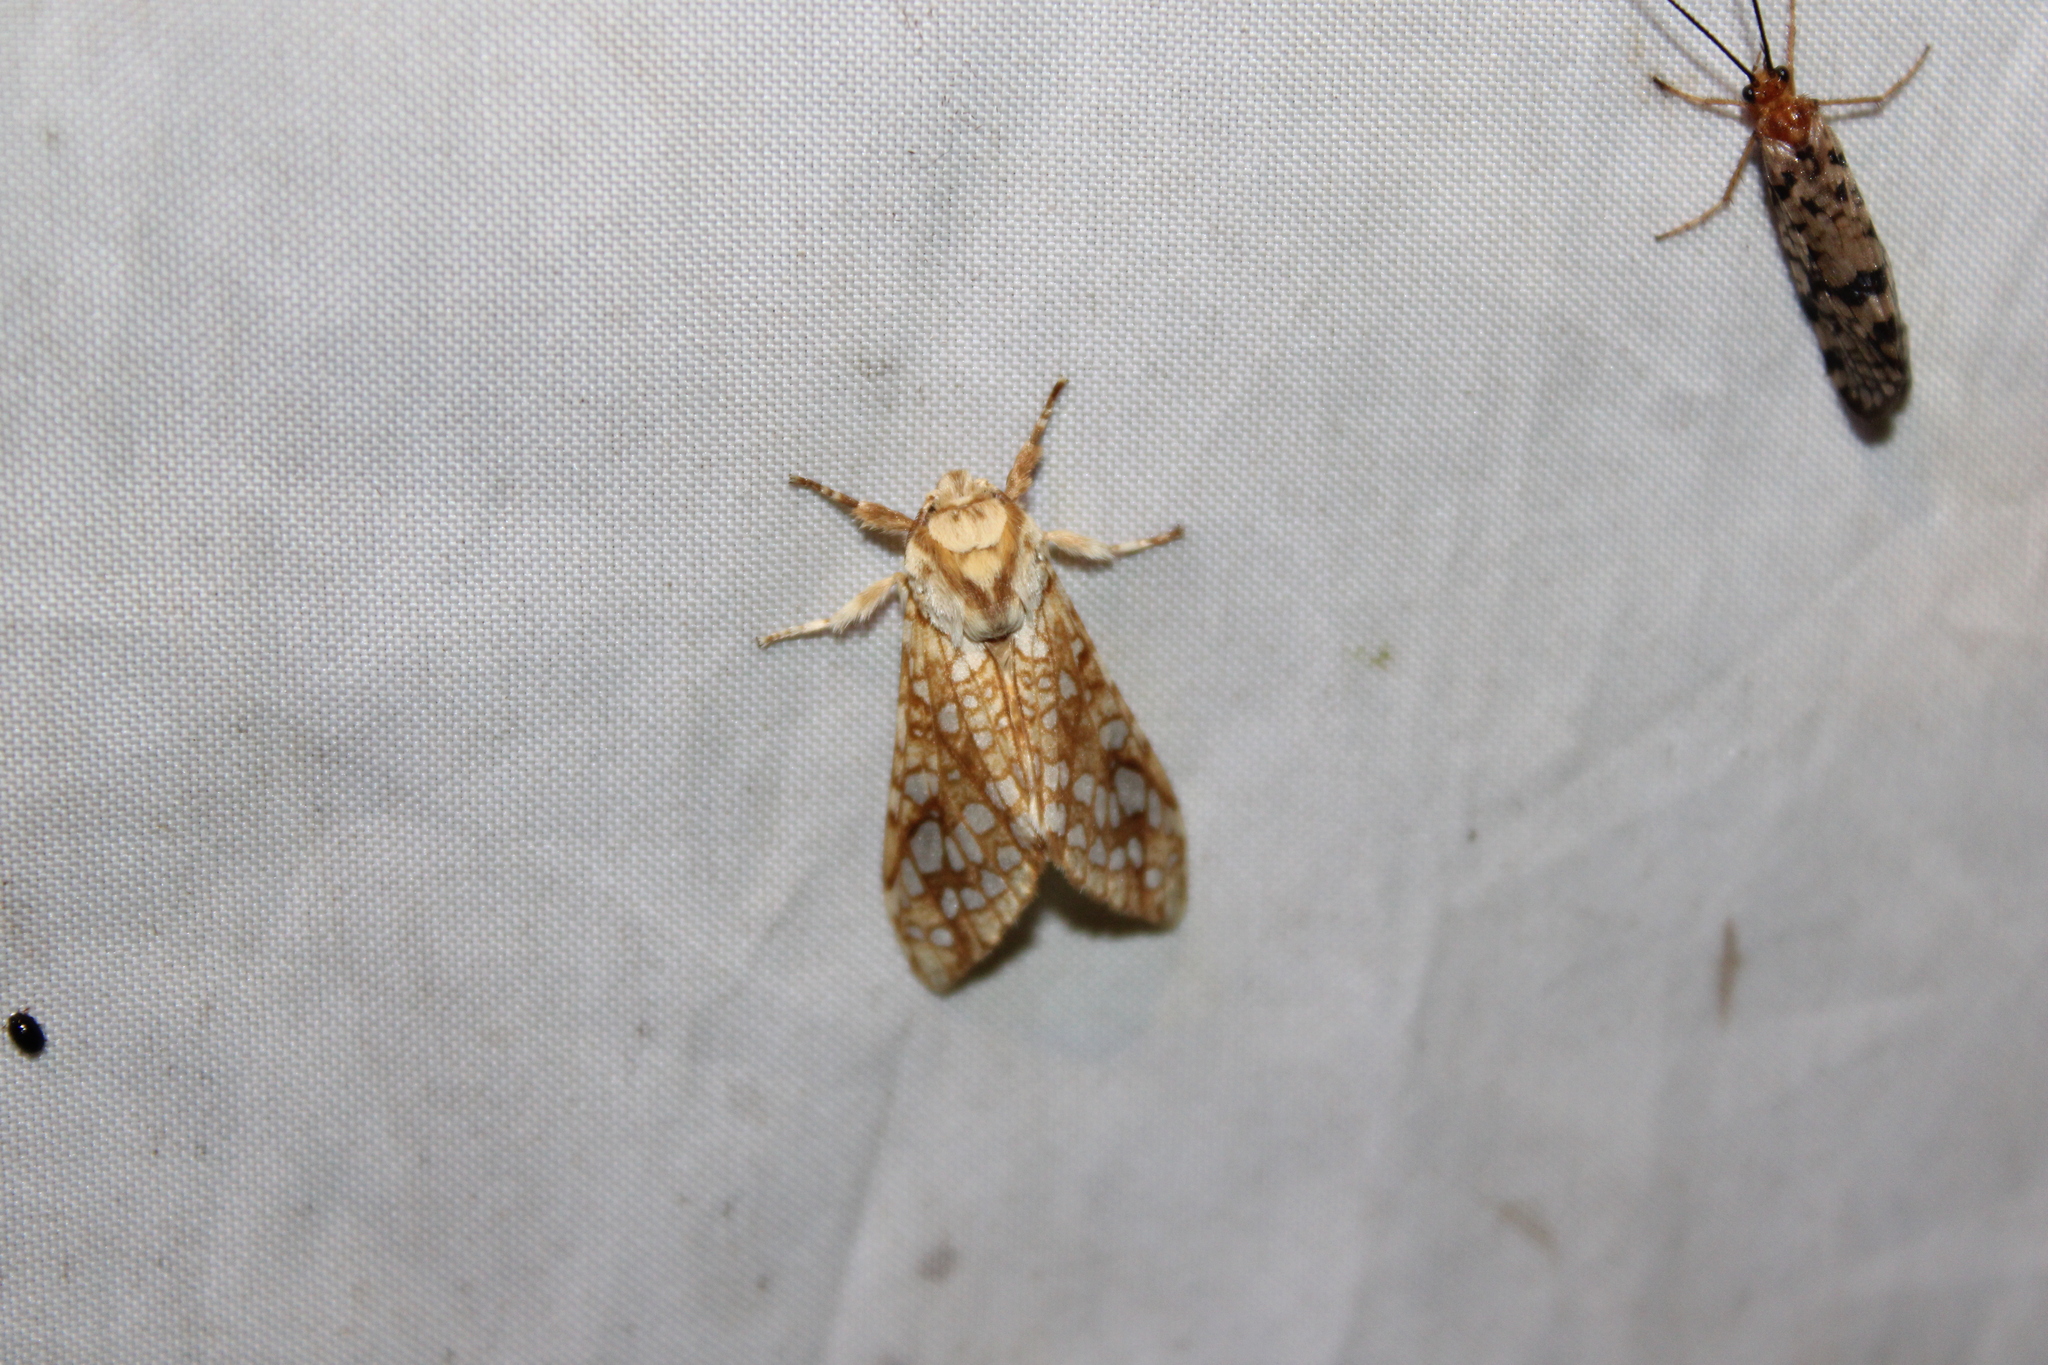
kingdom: Animalia
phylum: Arthropoda
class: Insecta
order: Lepidoptera
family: Erebidae
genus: Lophocampa
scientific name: Lophocampa caryae
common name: Hickory tussock moth
